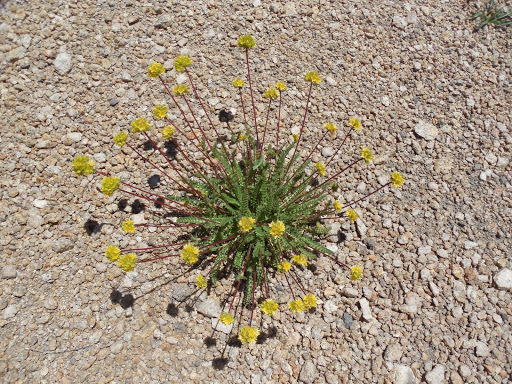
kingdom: Plantae
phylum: Tracheophyta
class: Magnoliopsida
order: Rosales
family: Rosaceae
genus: Potentilla
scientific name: Potentilla gordonii
